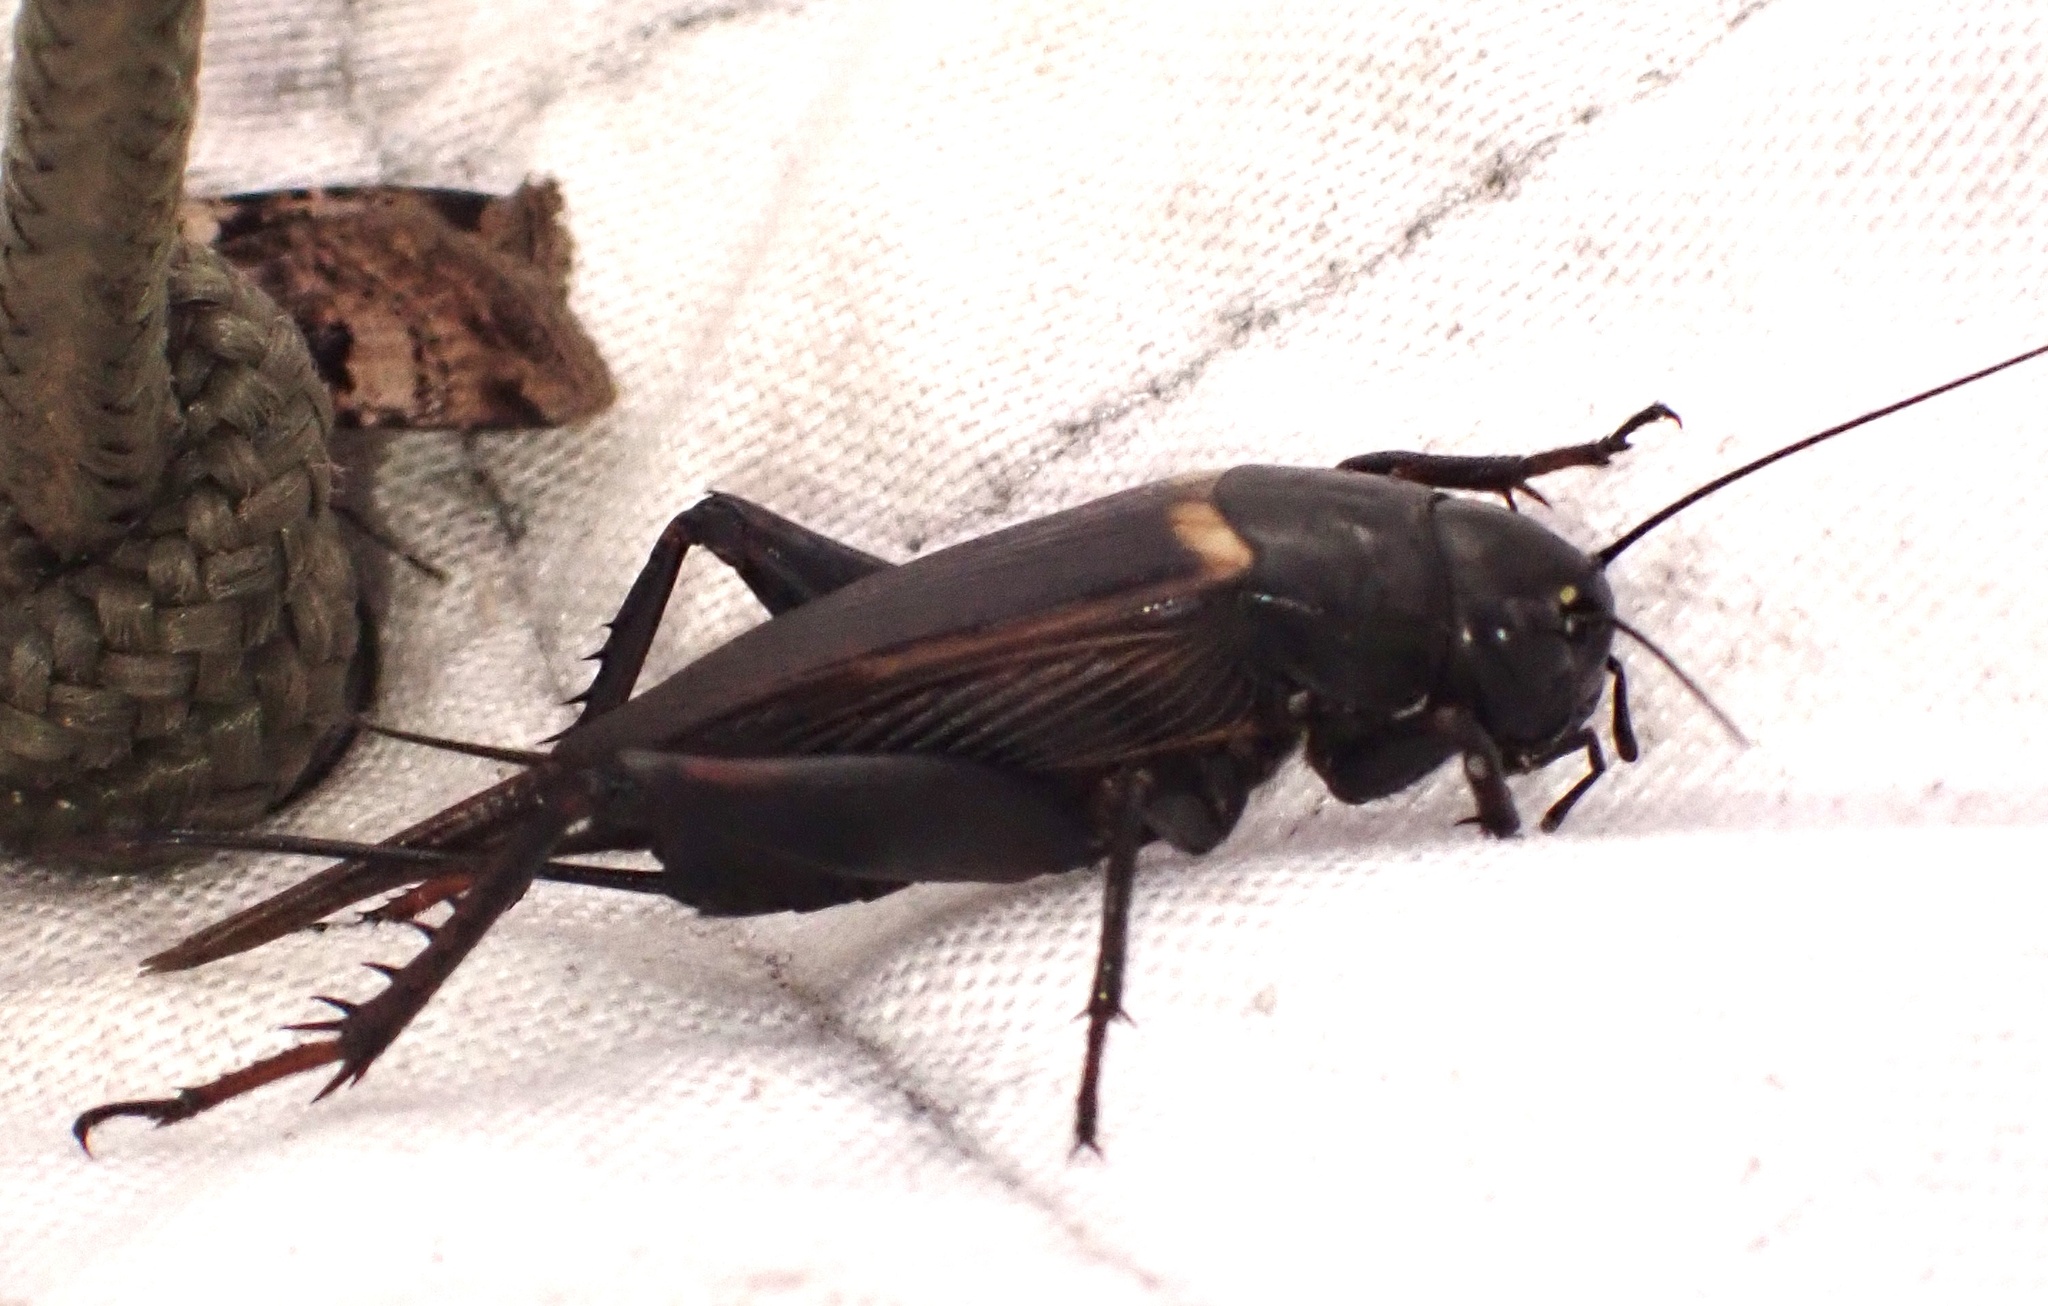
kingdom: Animalia
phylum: Arthropoda
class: Insecta
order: Orthoptera
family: Gryllidae
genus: Gryllus
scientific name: Gryllus bimaculatus
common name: Two-spotted cricket
